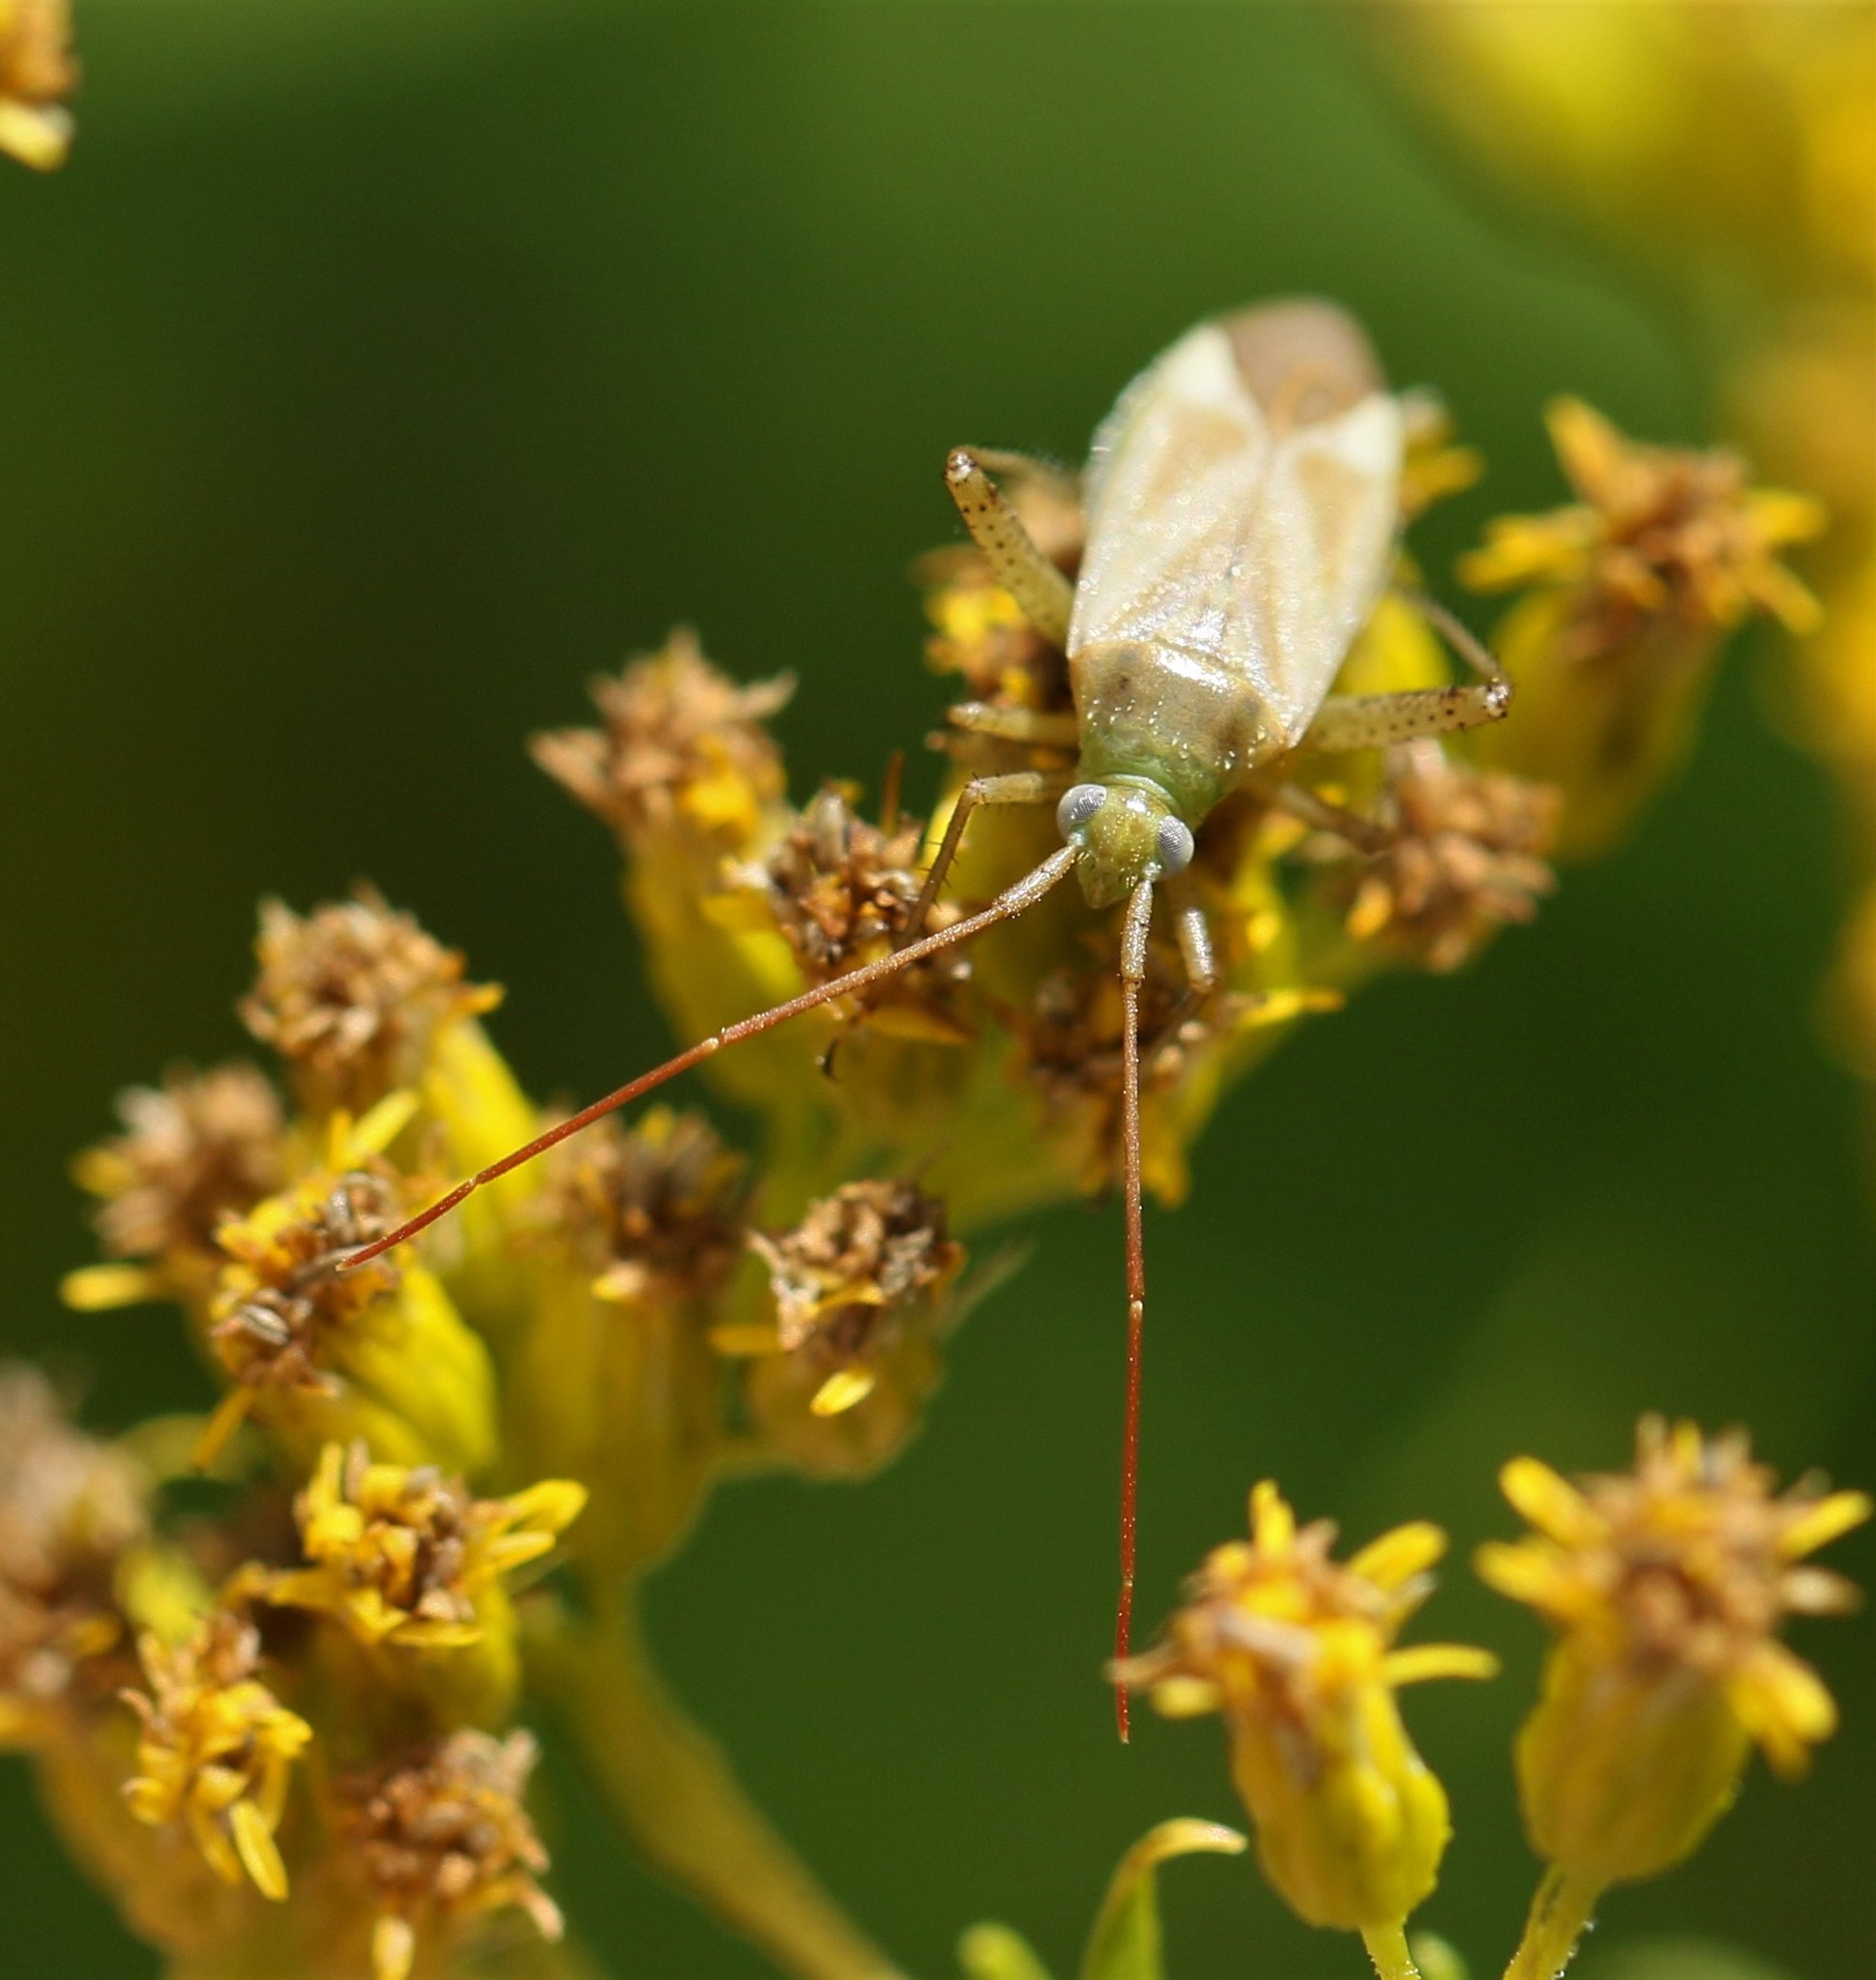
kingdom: Animalia
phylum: Arthropoda
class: Insecta
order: Hemiptera
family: Miridae
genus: Adelphocoris
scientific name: Adelphocoris lineolatus
